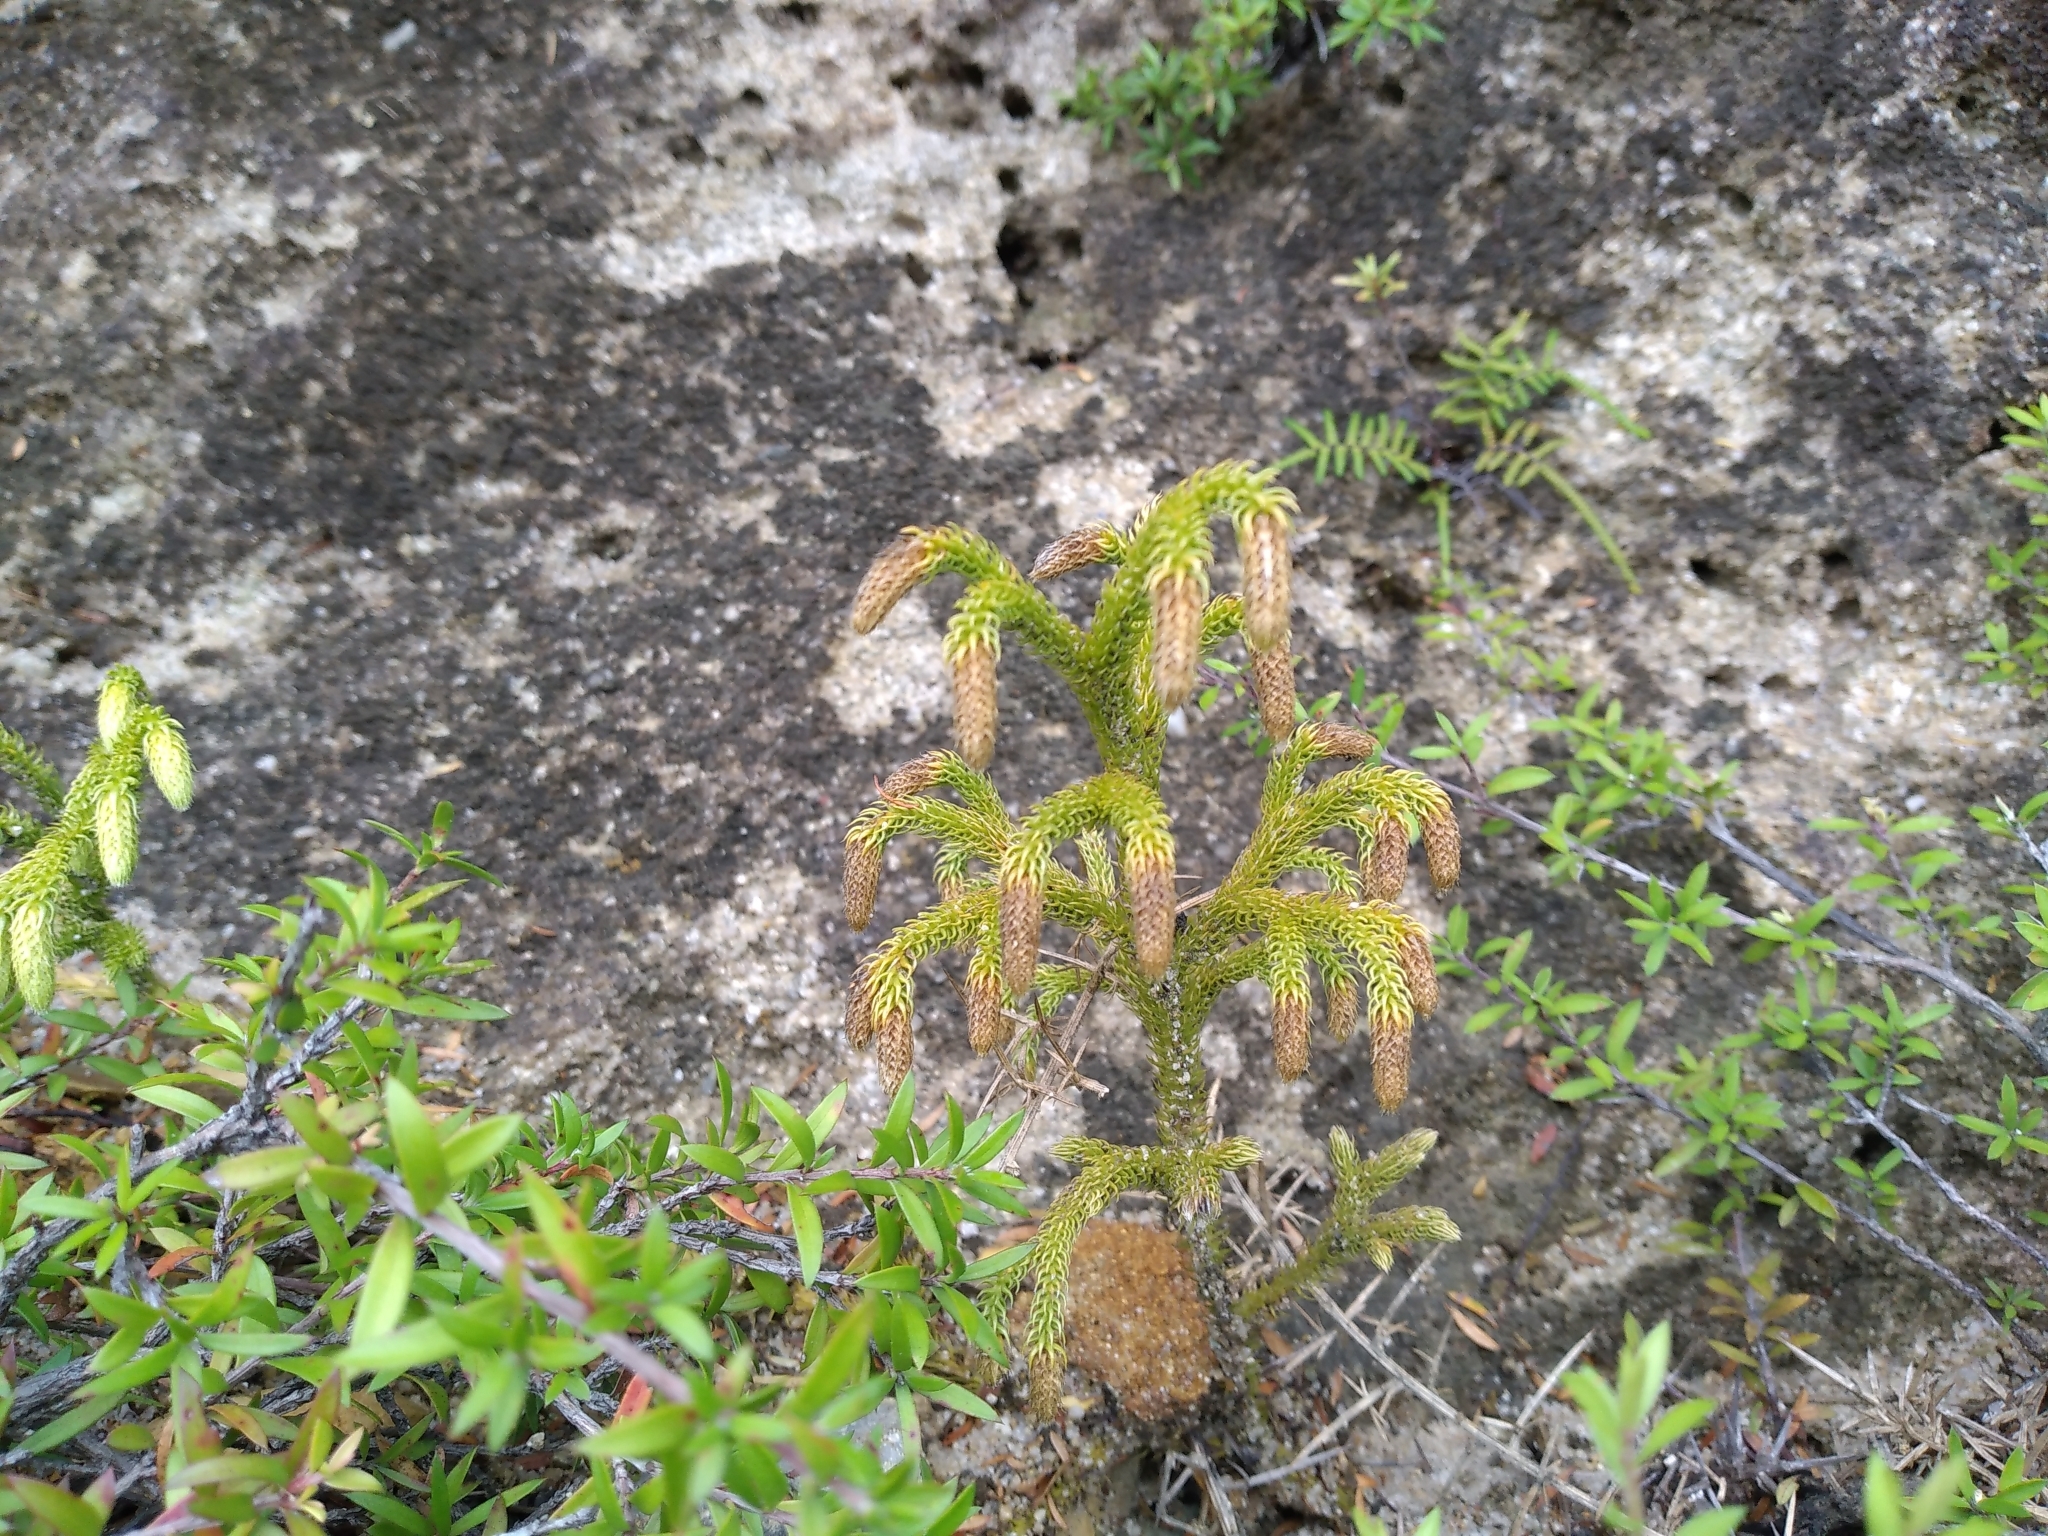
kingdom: Plantae
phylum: Tracheophyta
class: Lycopodiopsida
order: Lycopodiales
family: Lycopodiaceae
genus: Palhinhaea
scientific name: Palhinhaea cernua
